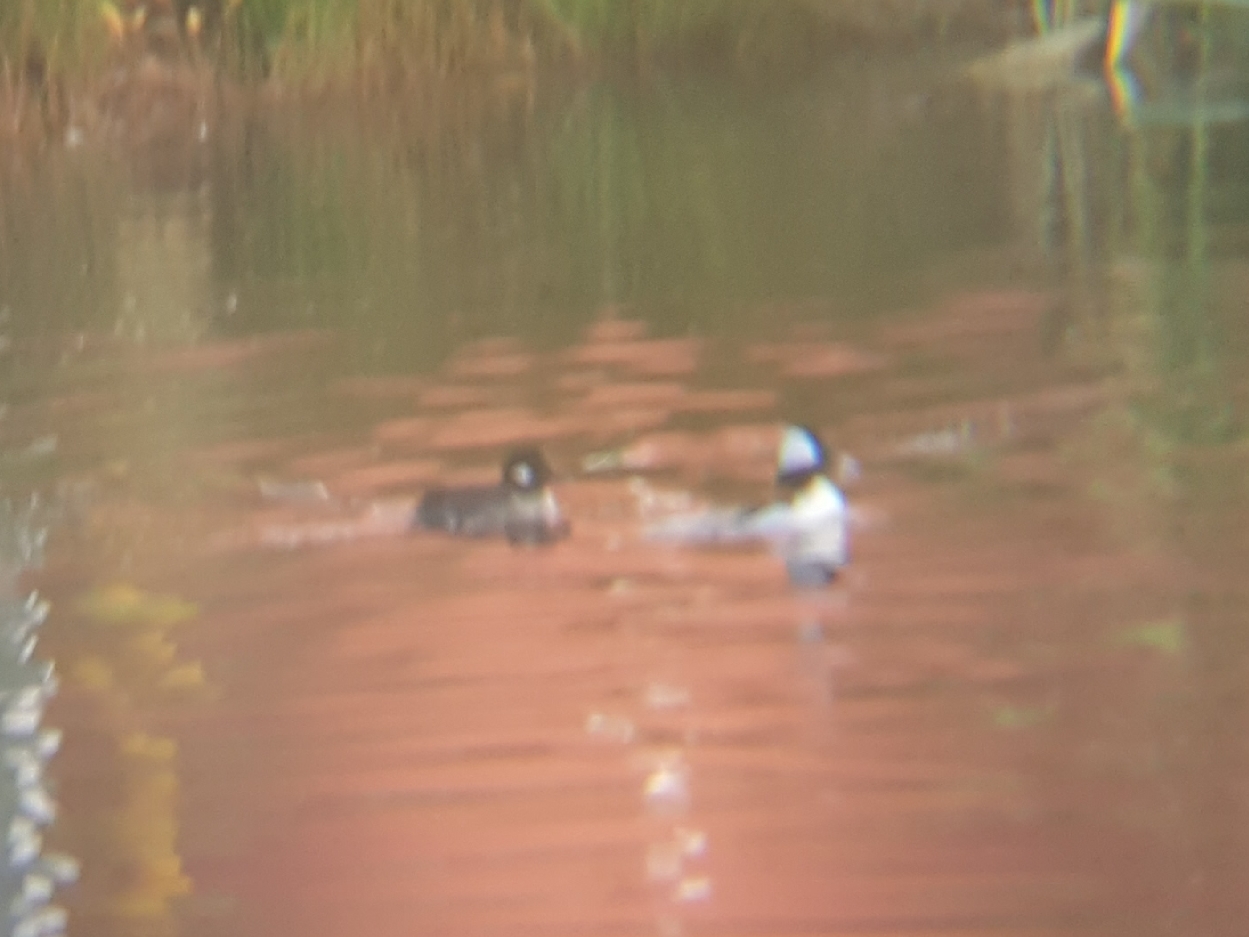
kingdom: Animalia
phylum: Chordata
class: Aves
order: Anseriformes
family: Anatidae
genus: Bucephala
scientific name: Bucephala albeola
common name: Bufflehead
